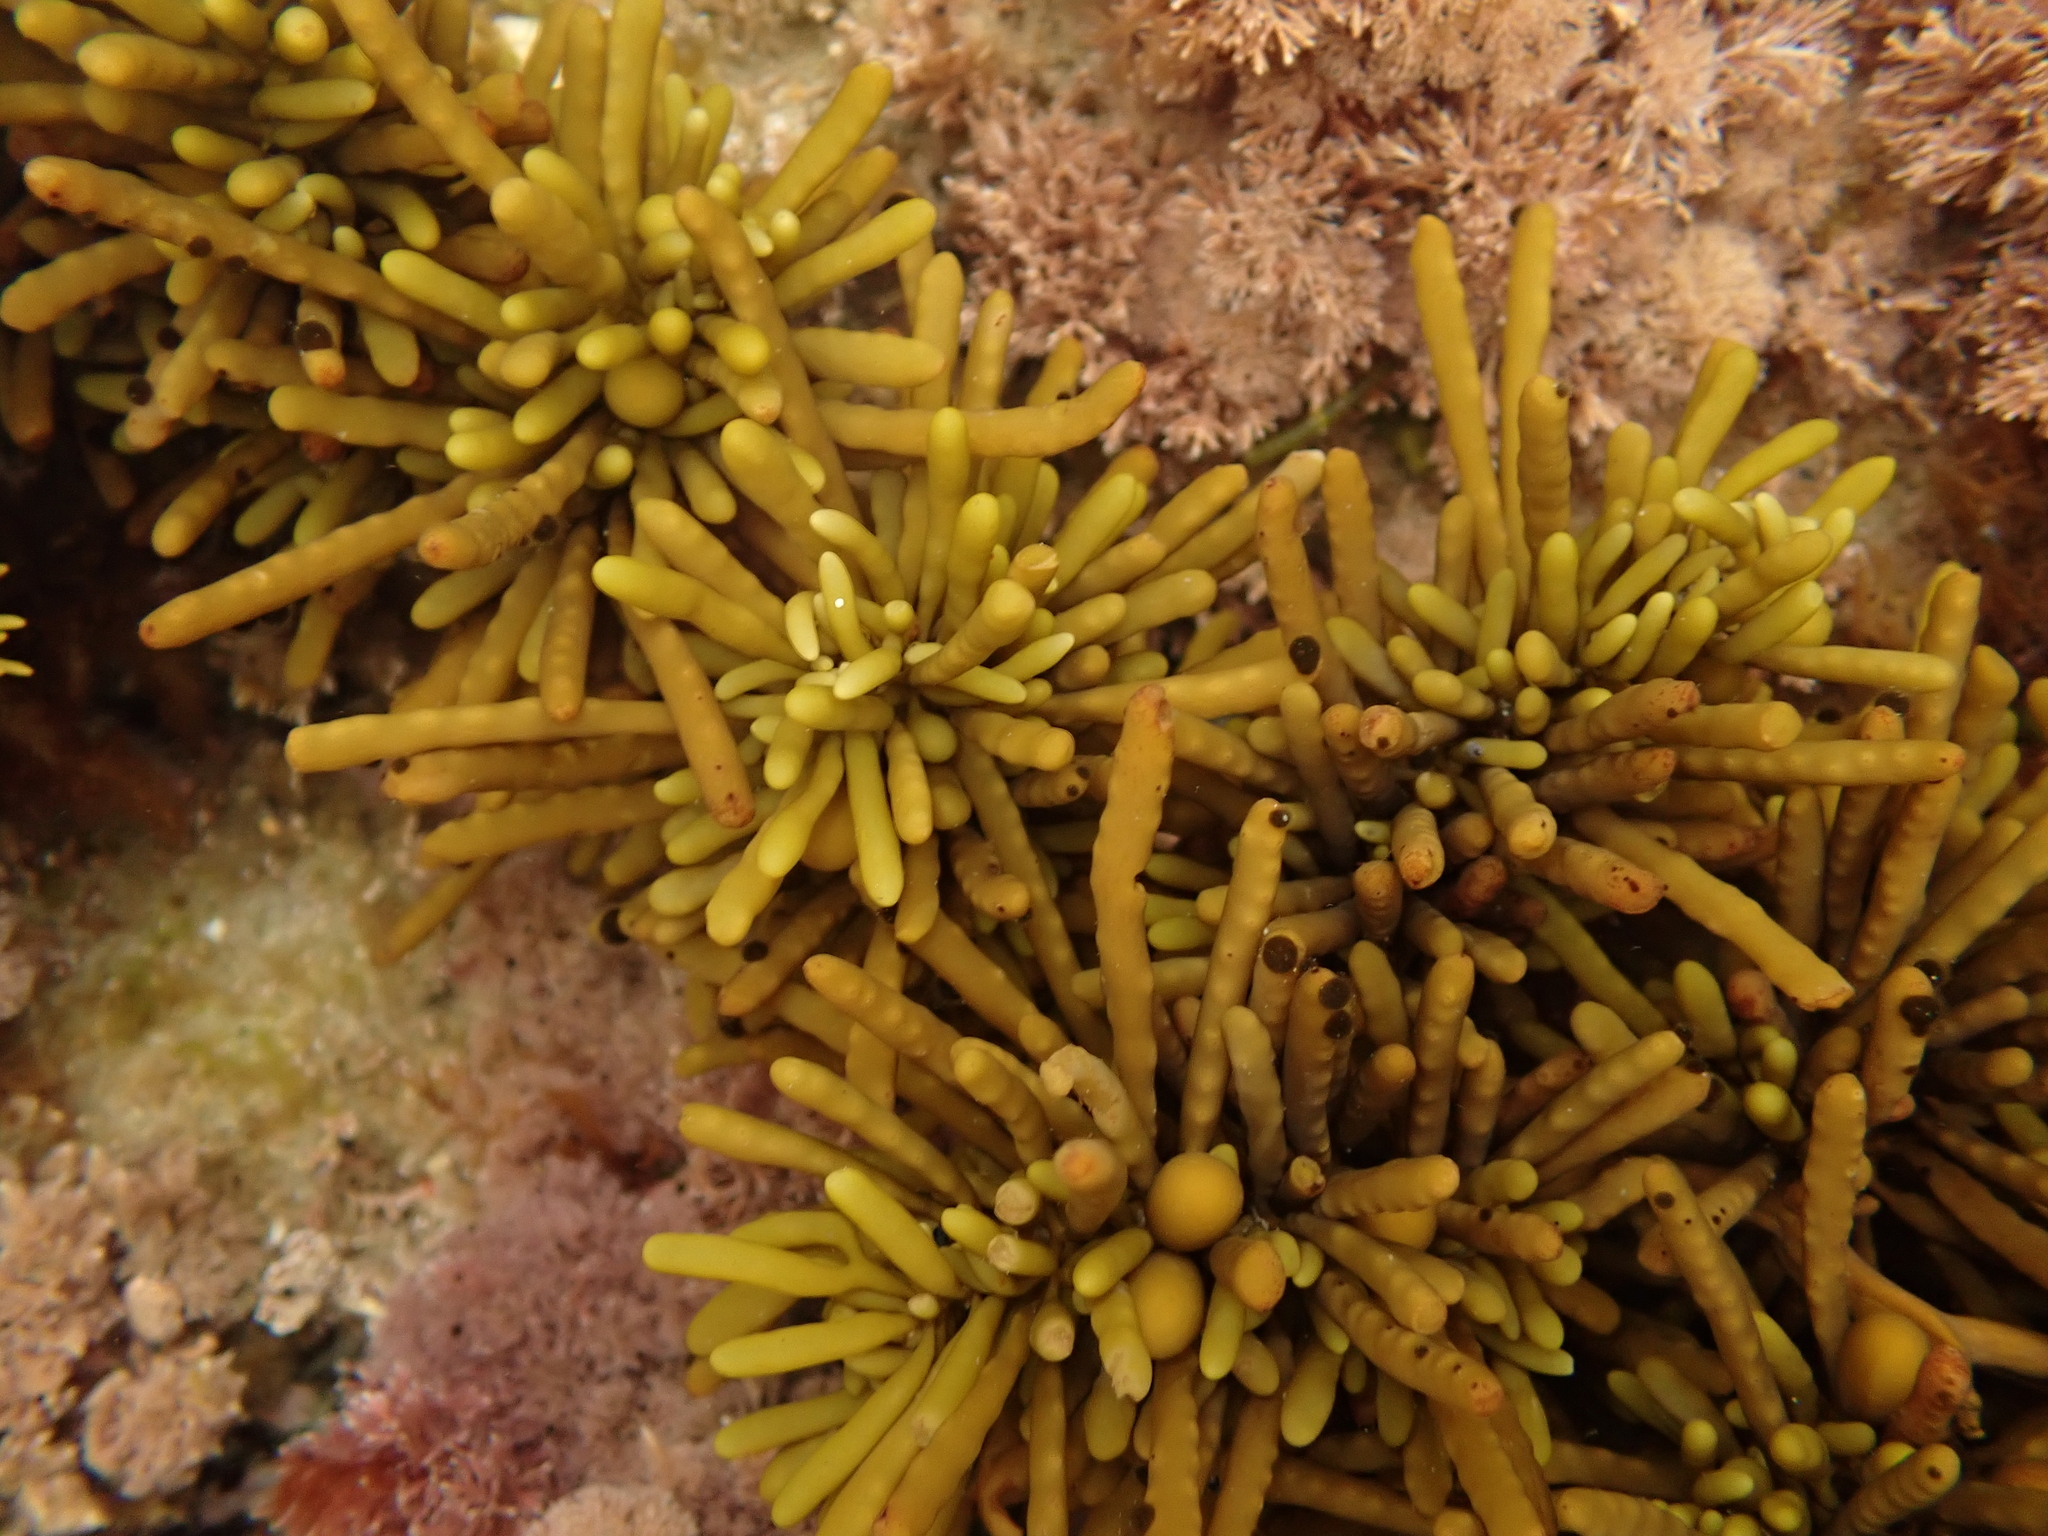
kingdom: Chromista
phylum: Ochrophyta
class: Phaeophyceae
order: Fucales
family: Sargassaceae
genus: Cystophora
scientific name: Cystophora torulosa
